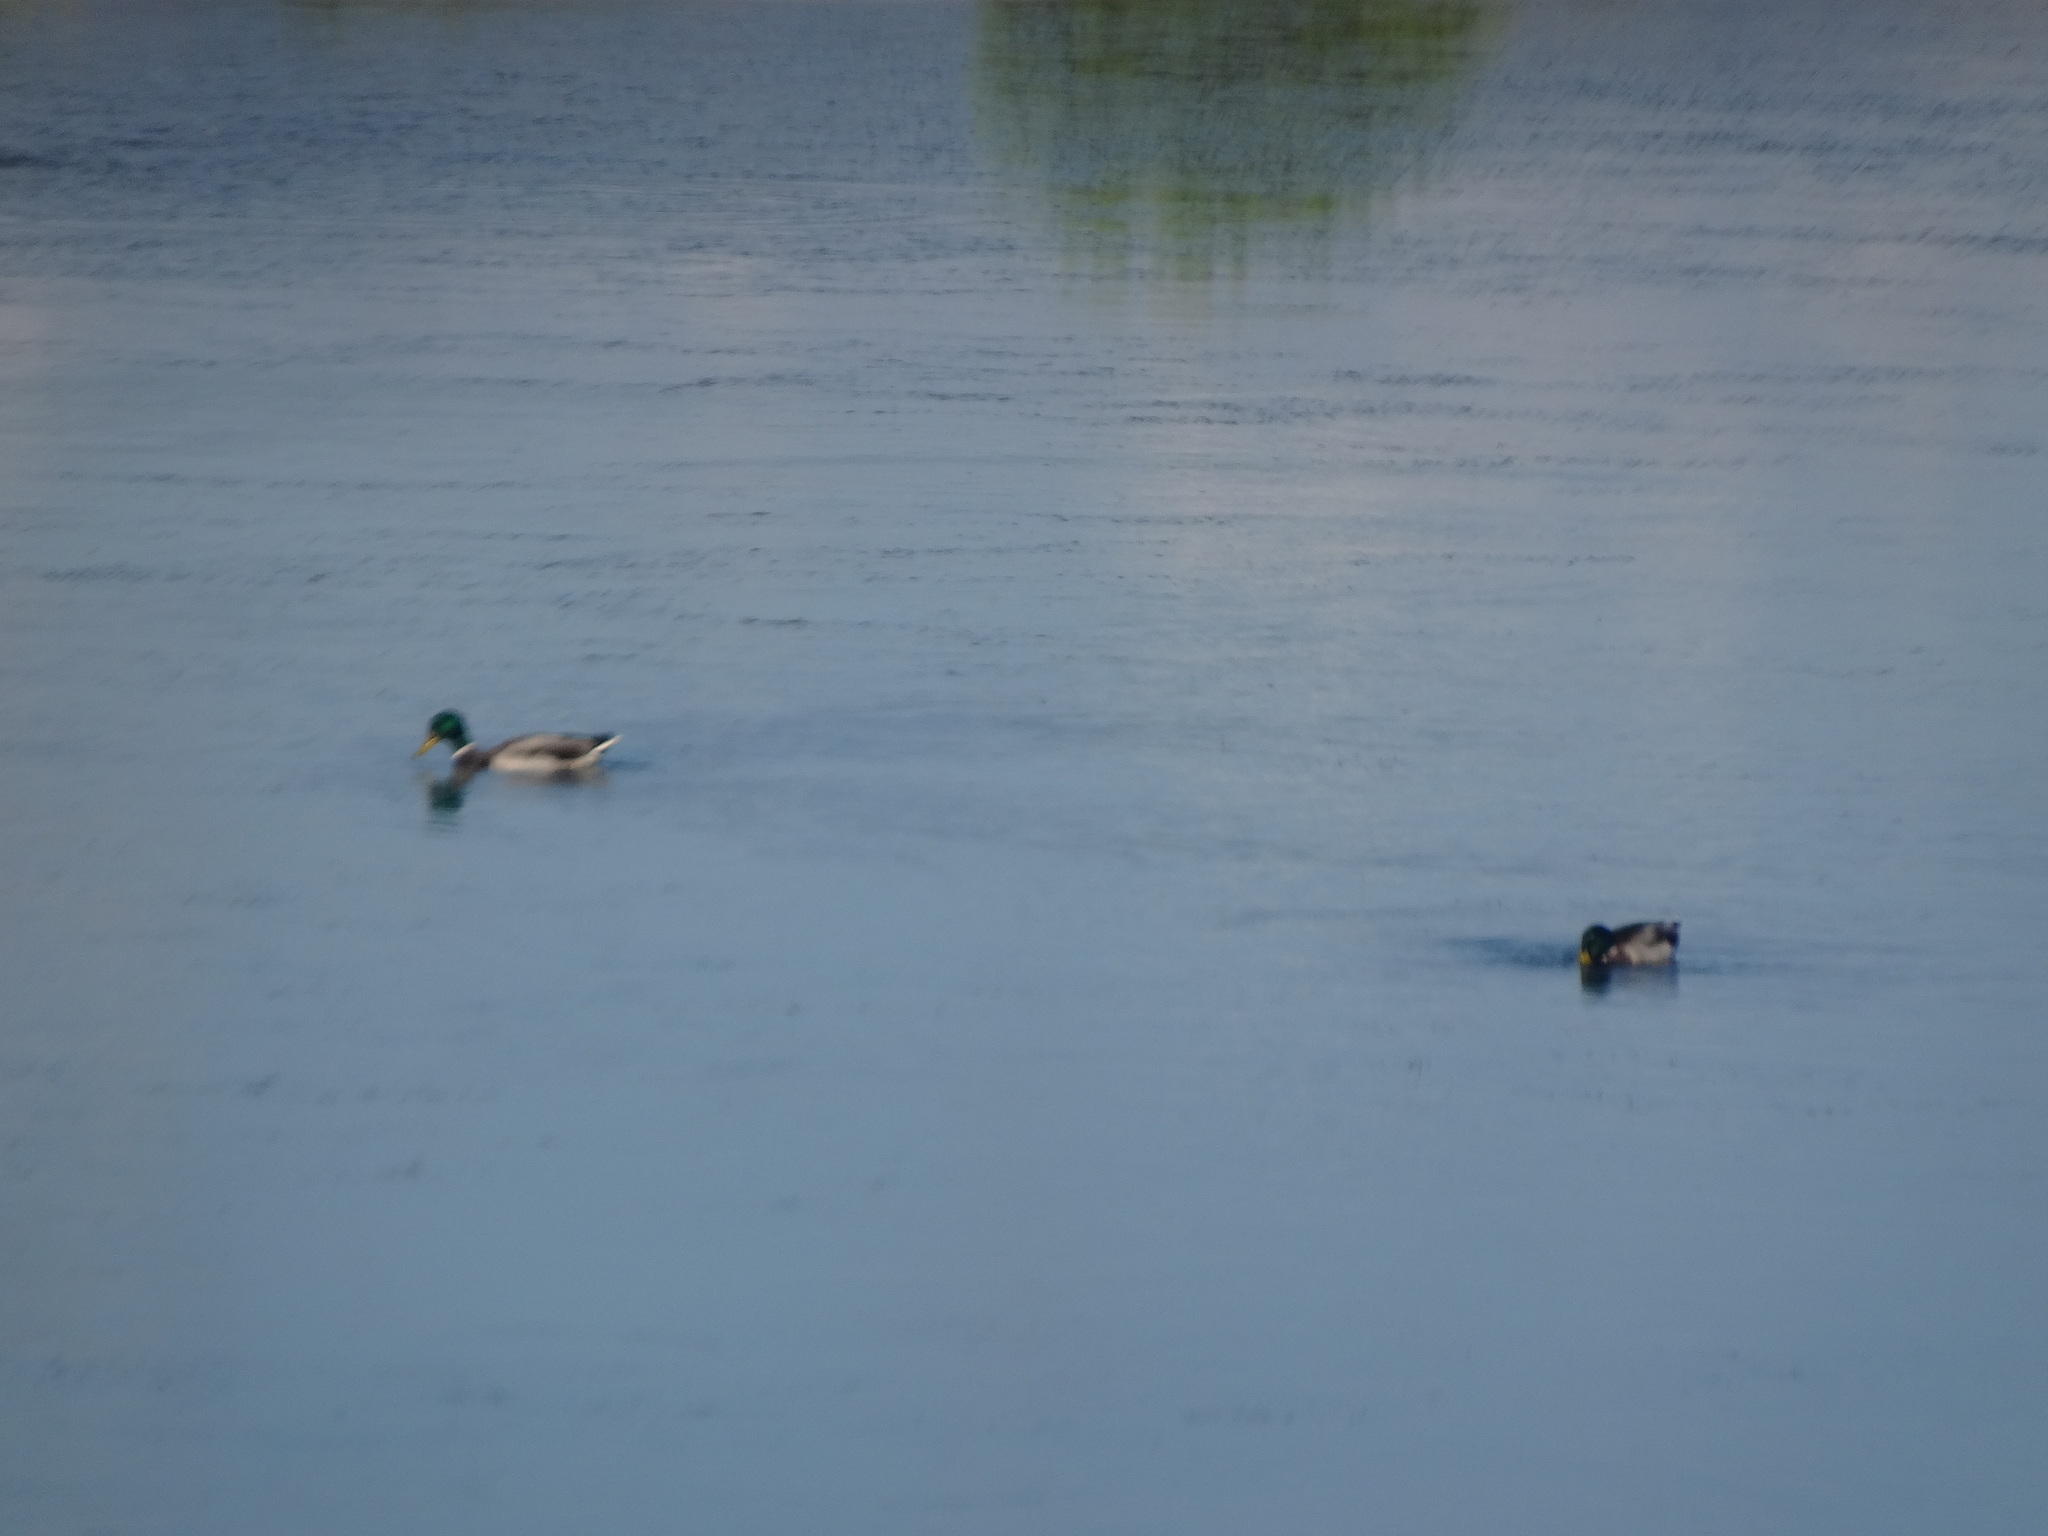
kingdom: Animalia
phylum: Chordata
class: Aves
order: Anseriformes
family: Anatidae
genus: Anas
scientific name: Anas platyrhynchos
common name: Mallard
